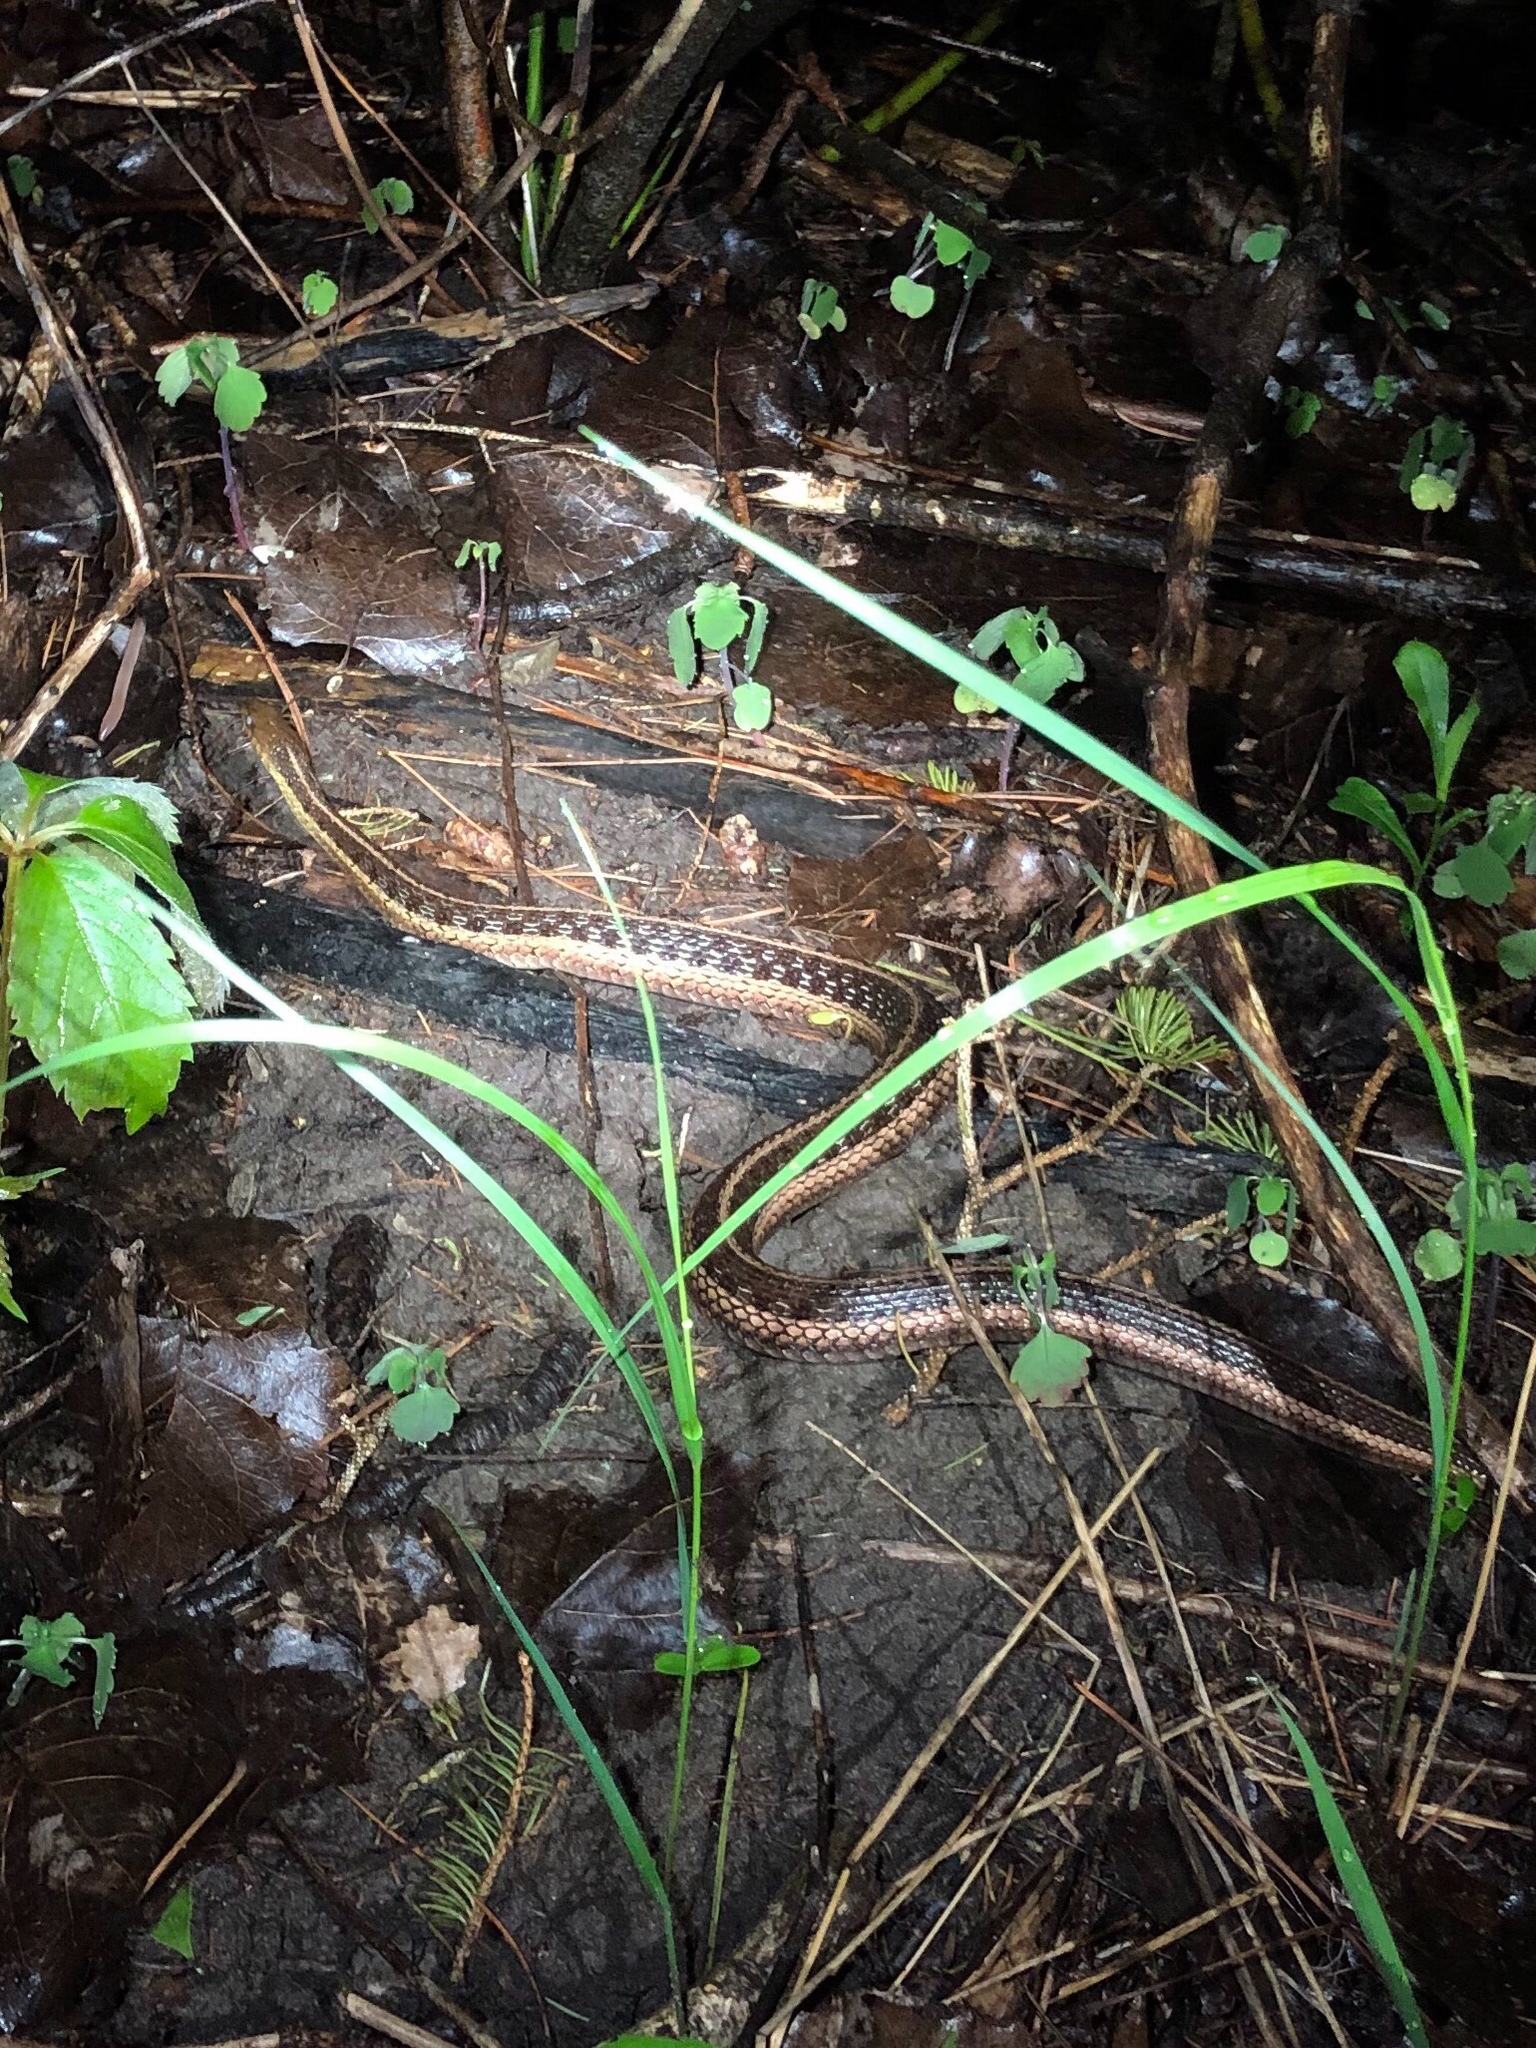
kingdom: Animalia
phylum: Chordata
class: Squamata
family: Colubridae
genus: Thamnophis
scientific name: Thamnophis sirtalis
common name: Common garter snake
